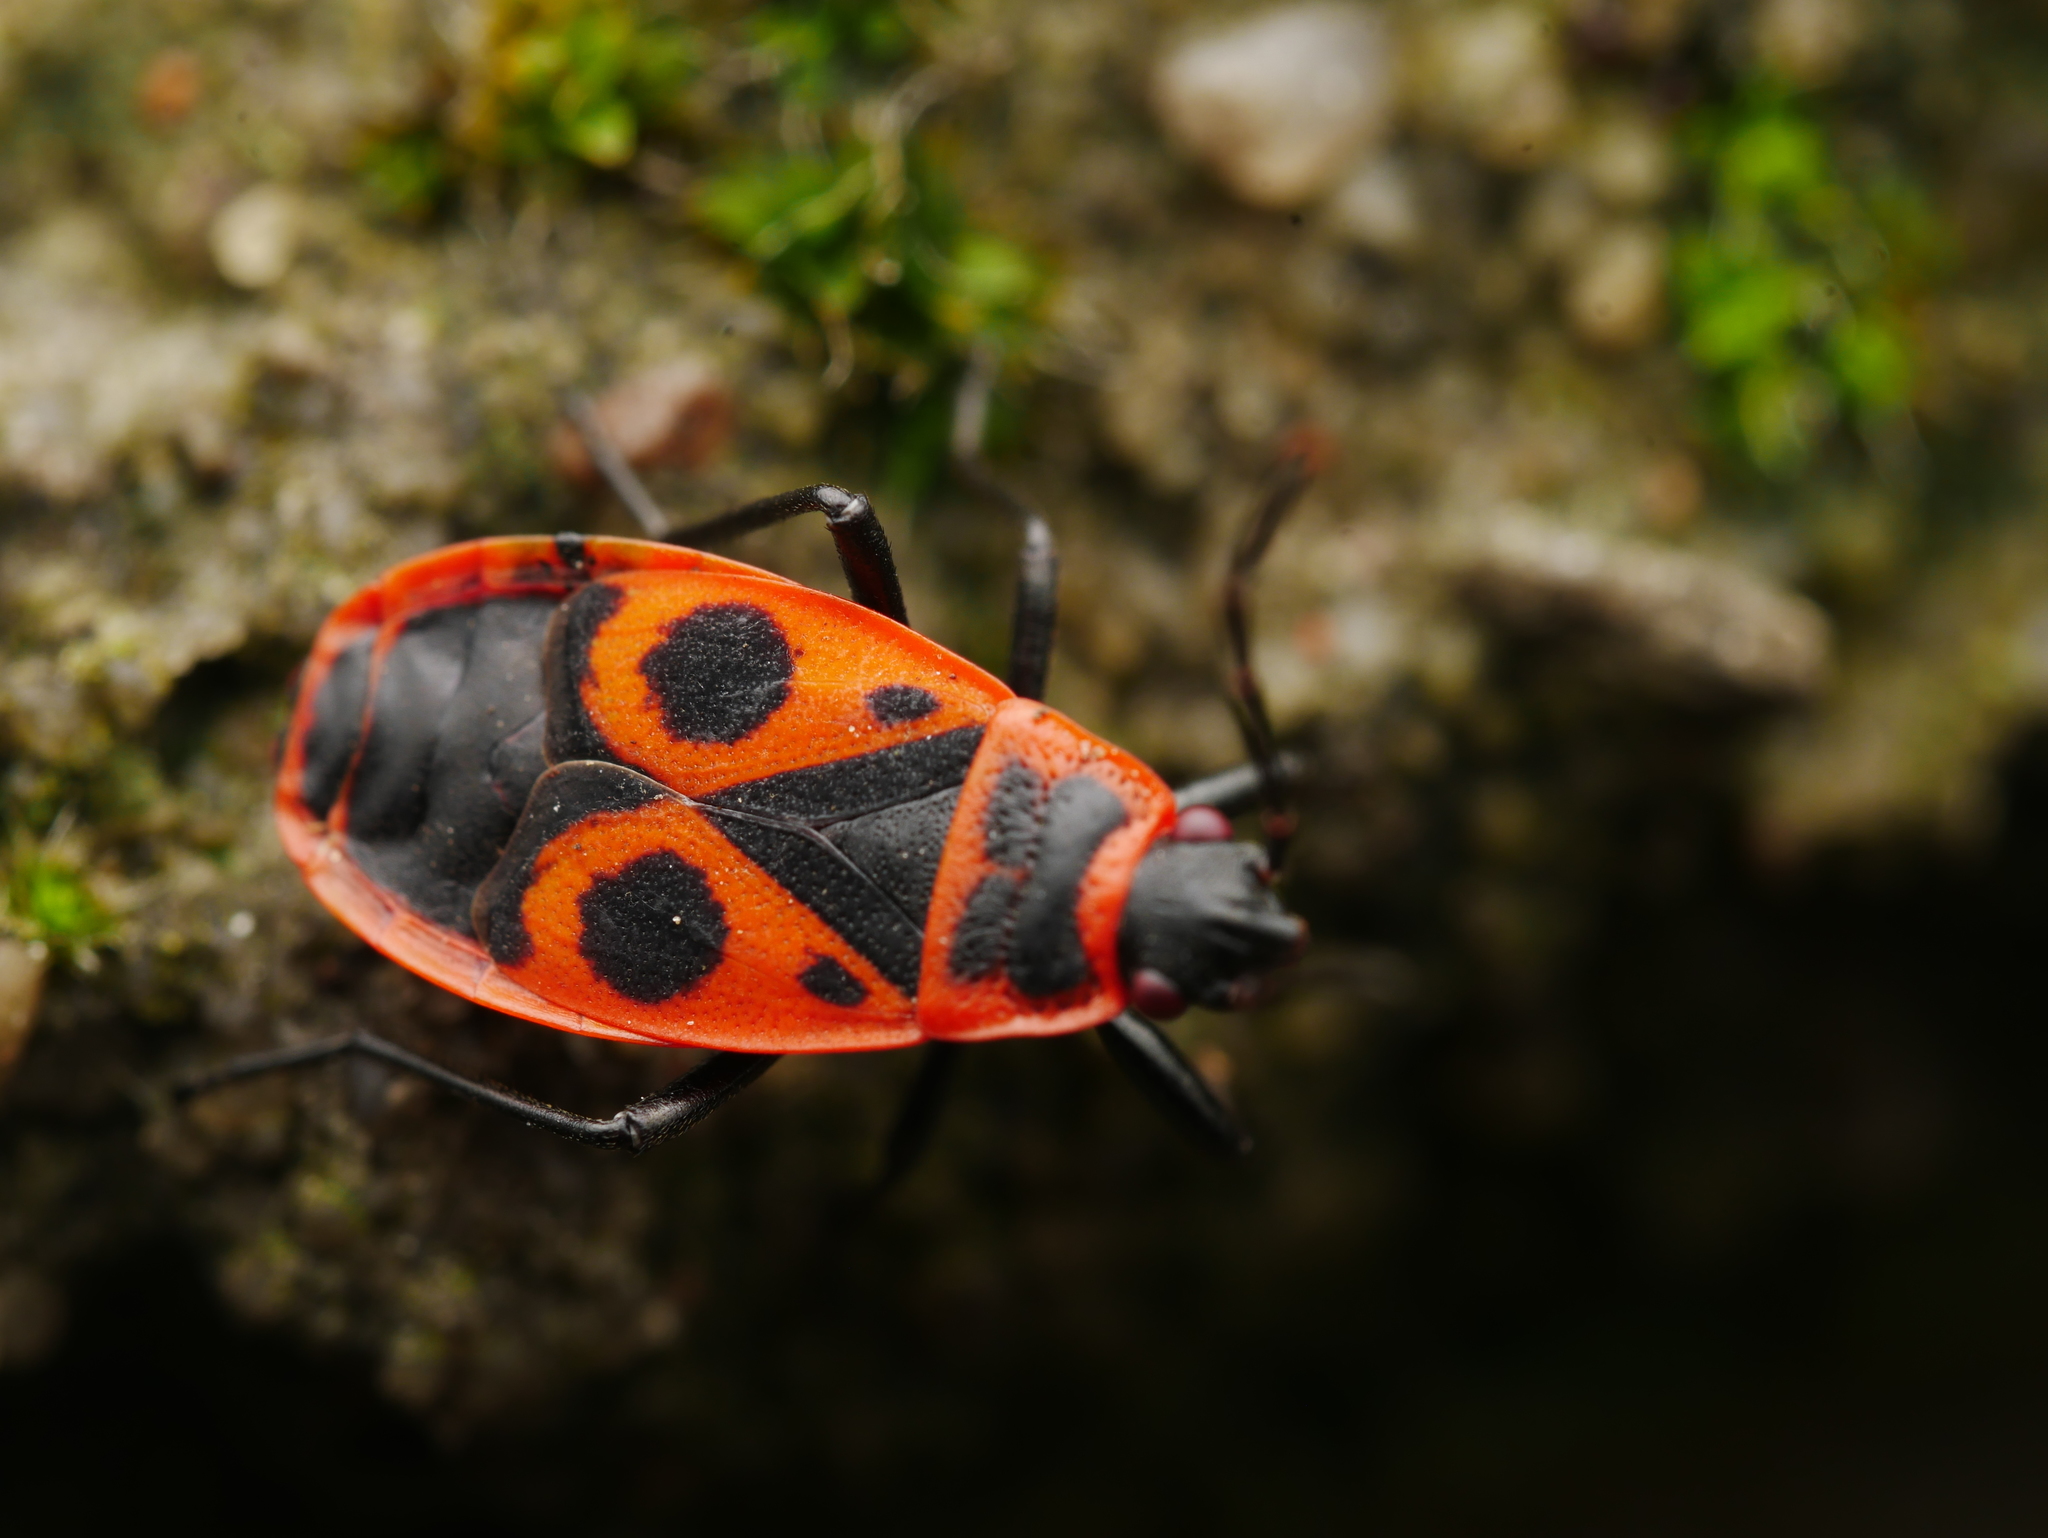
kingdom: Animalia
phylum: Arthropoda
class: Insecta
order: Hemiptera
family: Pyrrhocoridae
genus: Pyrrhocoris
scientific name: Pyrrhocoris apterus
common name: Firebug
